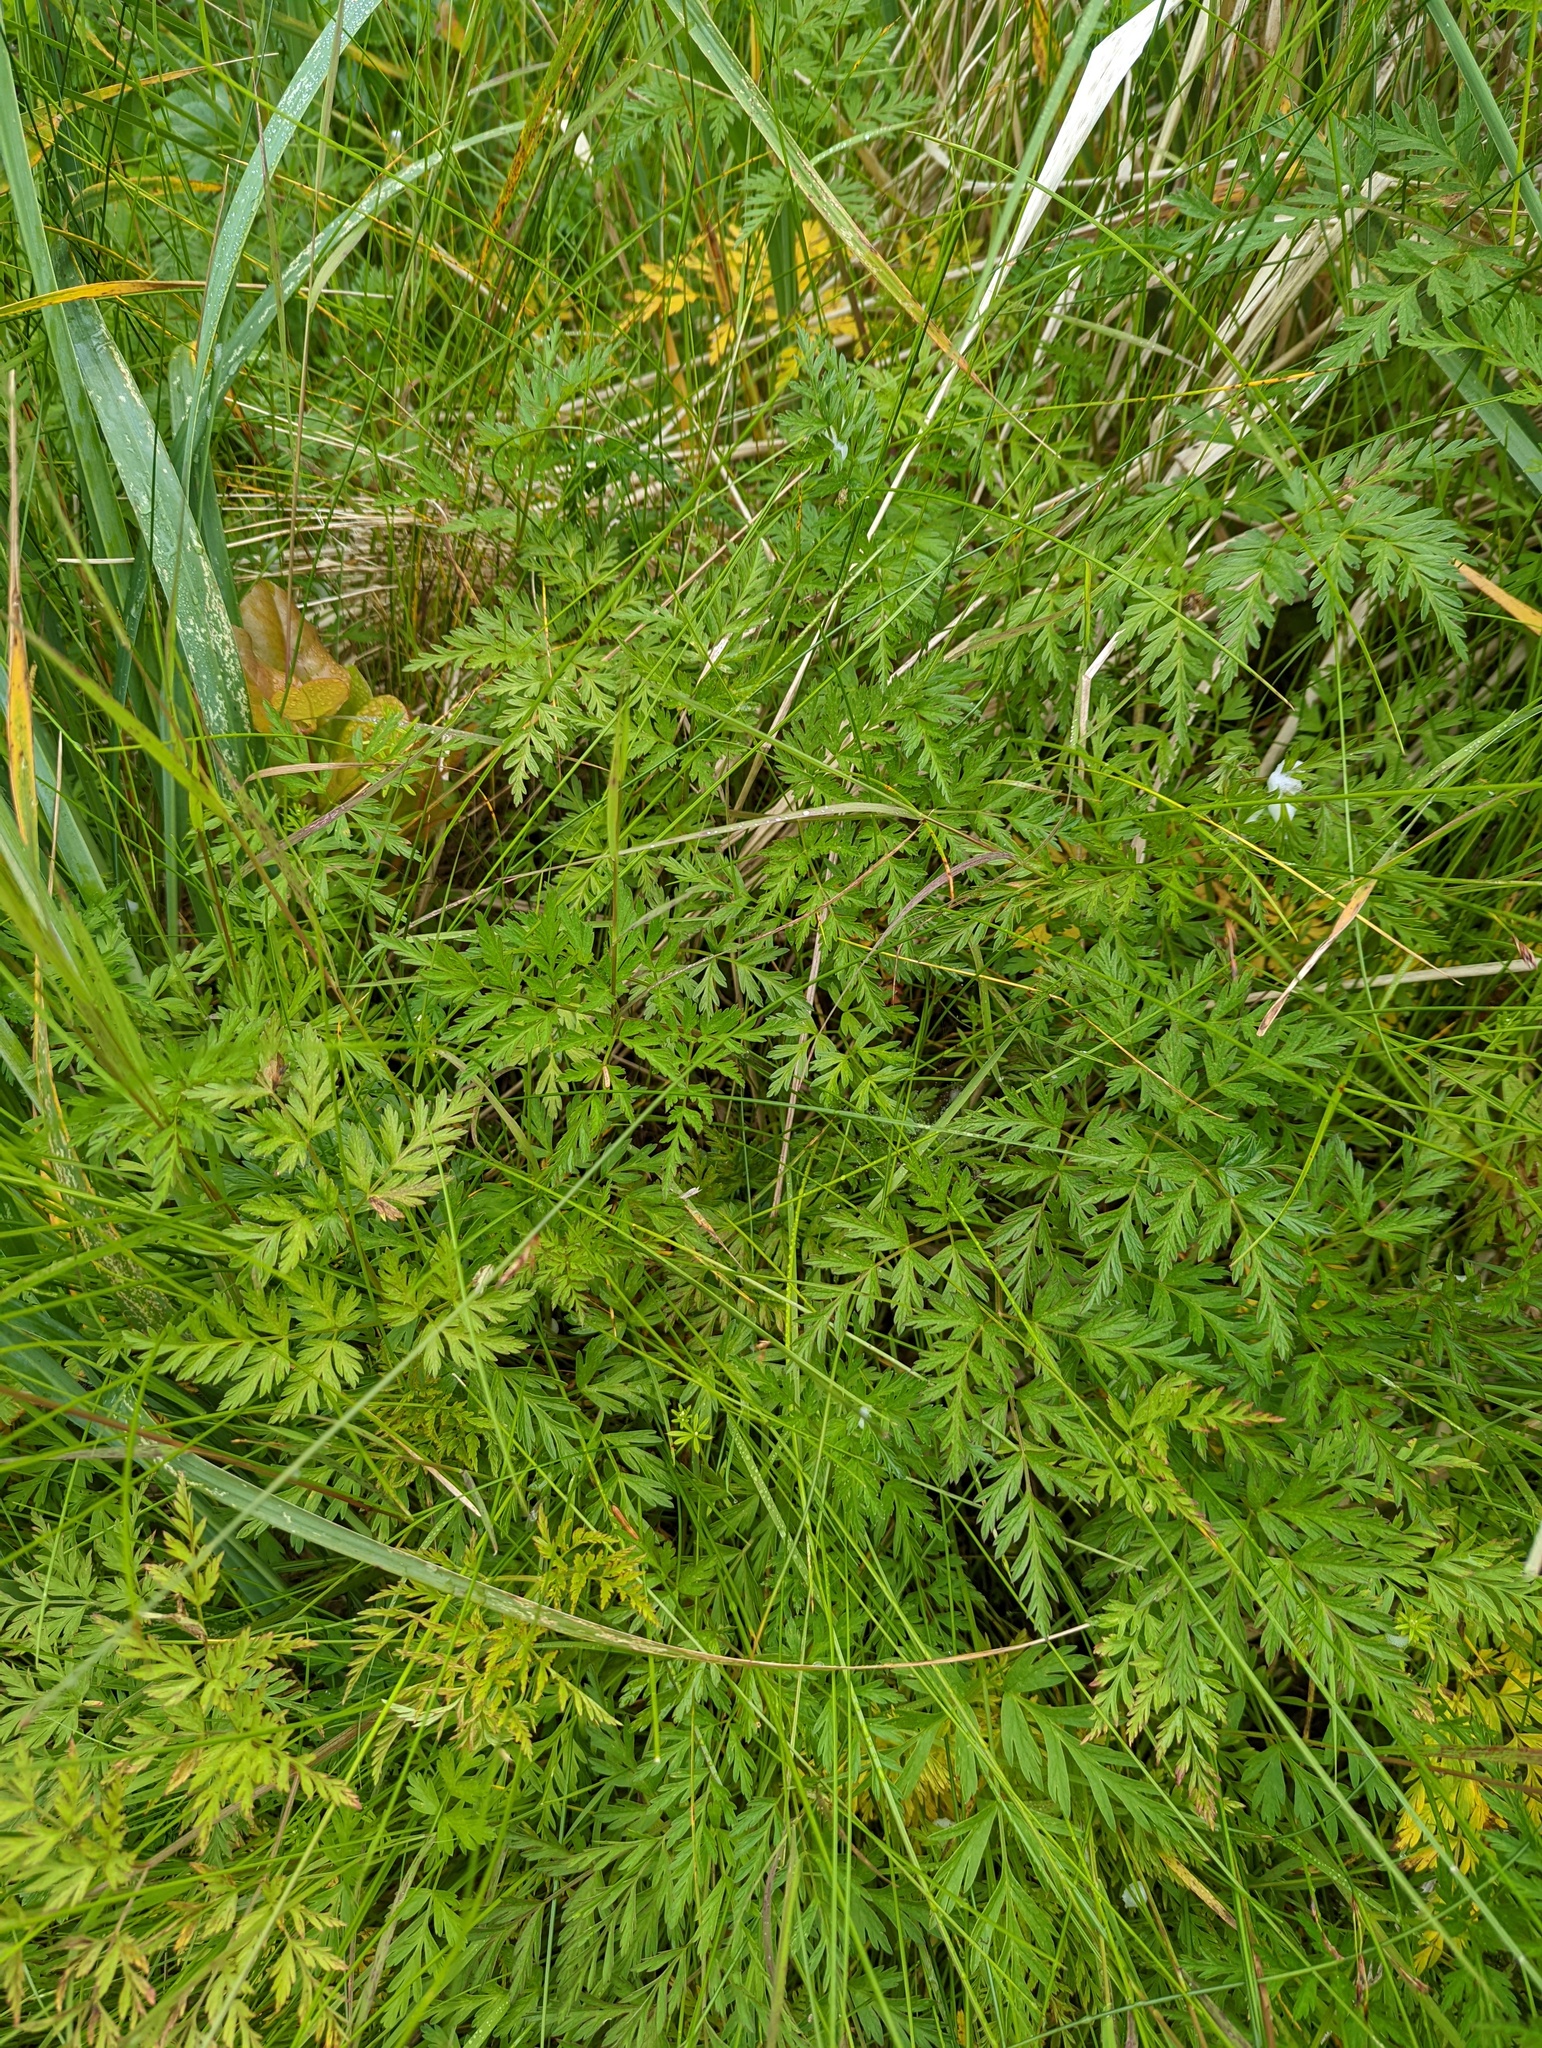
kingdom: Plantae
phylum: Tracheophyta
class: Magnoliopsida
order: Apiales
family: Apiaceae
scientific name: Apiaceae
